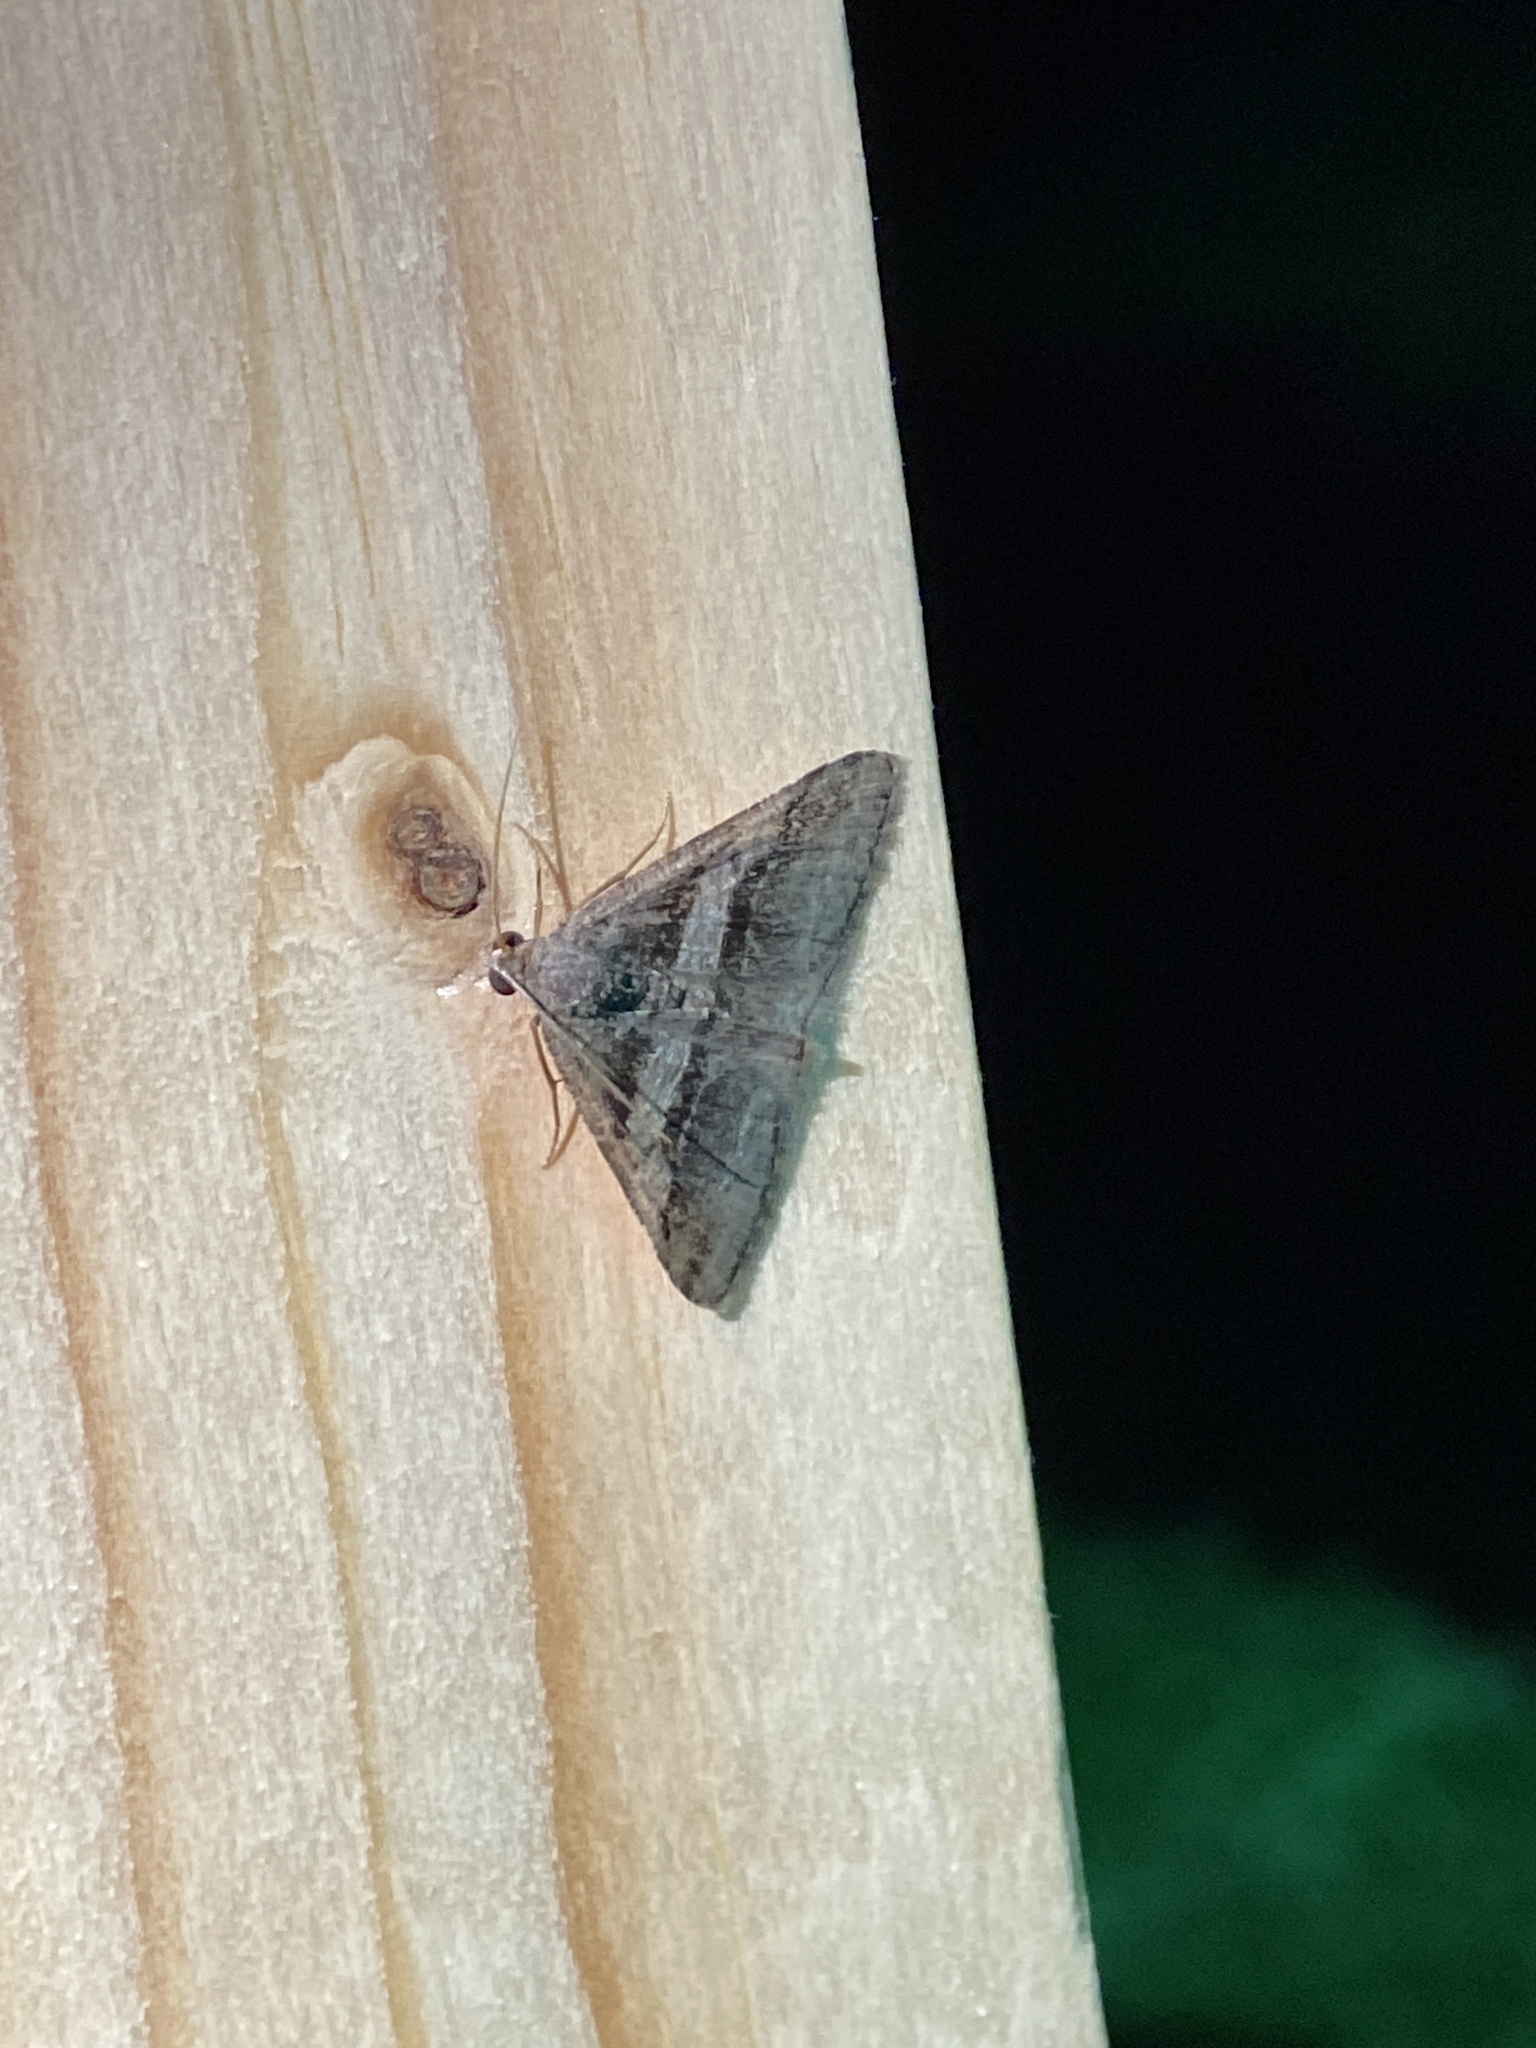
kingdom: Animalia
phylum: Arthropoda
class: Insecta
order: Lepidoptera
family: Geometridae
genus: Digrammia
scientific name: Digrammia atrofasciata
